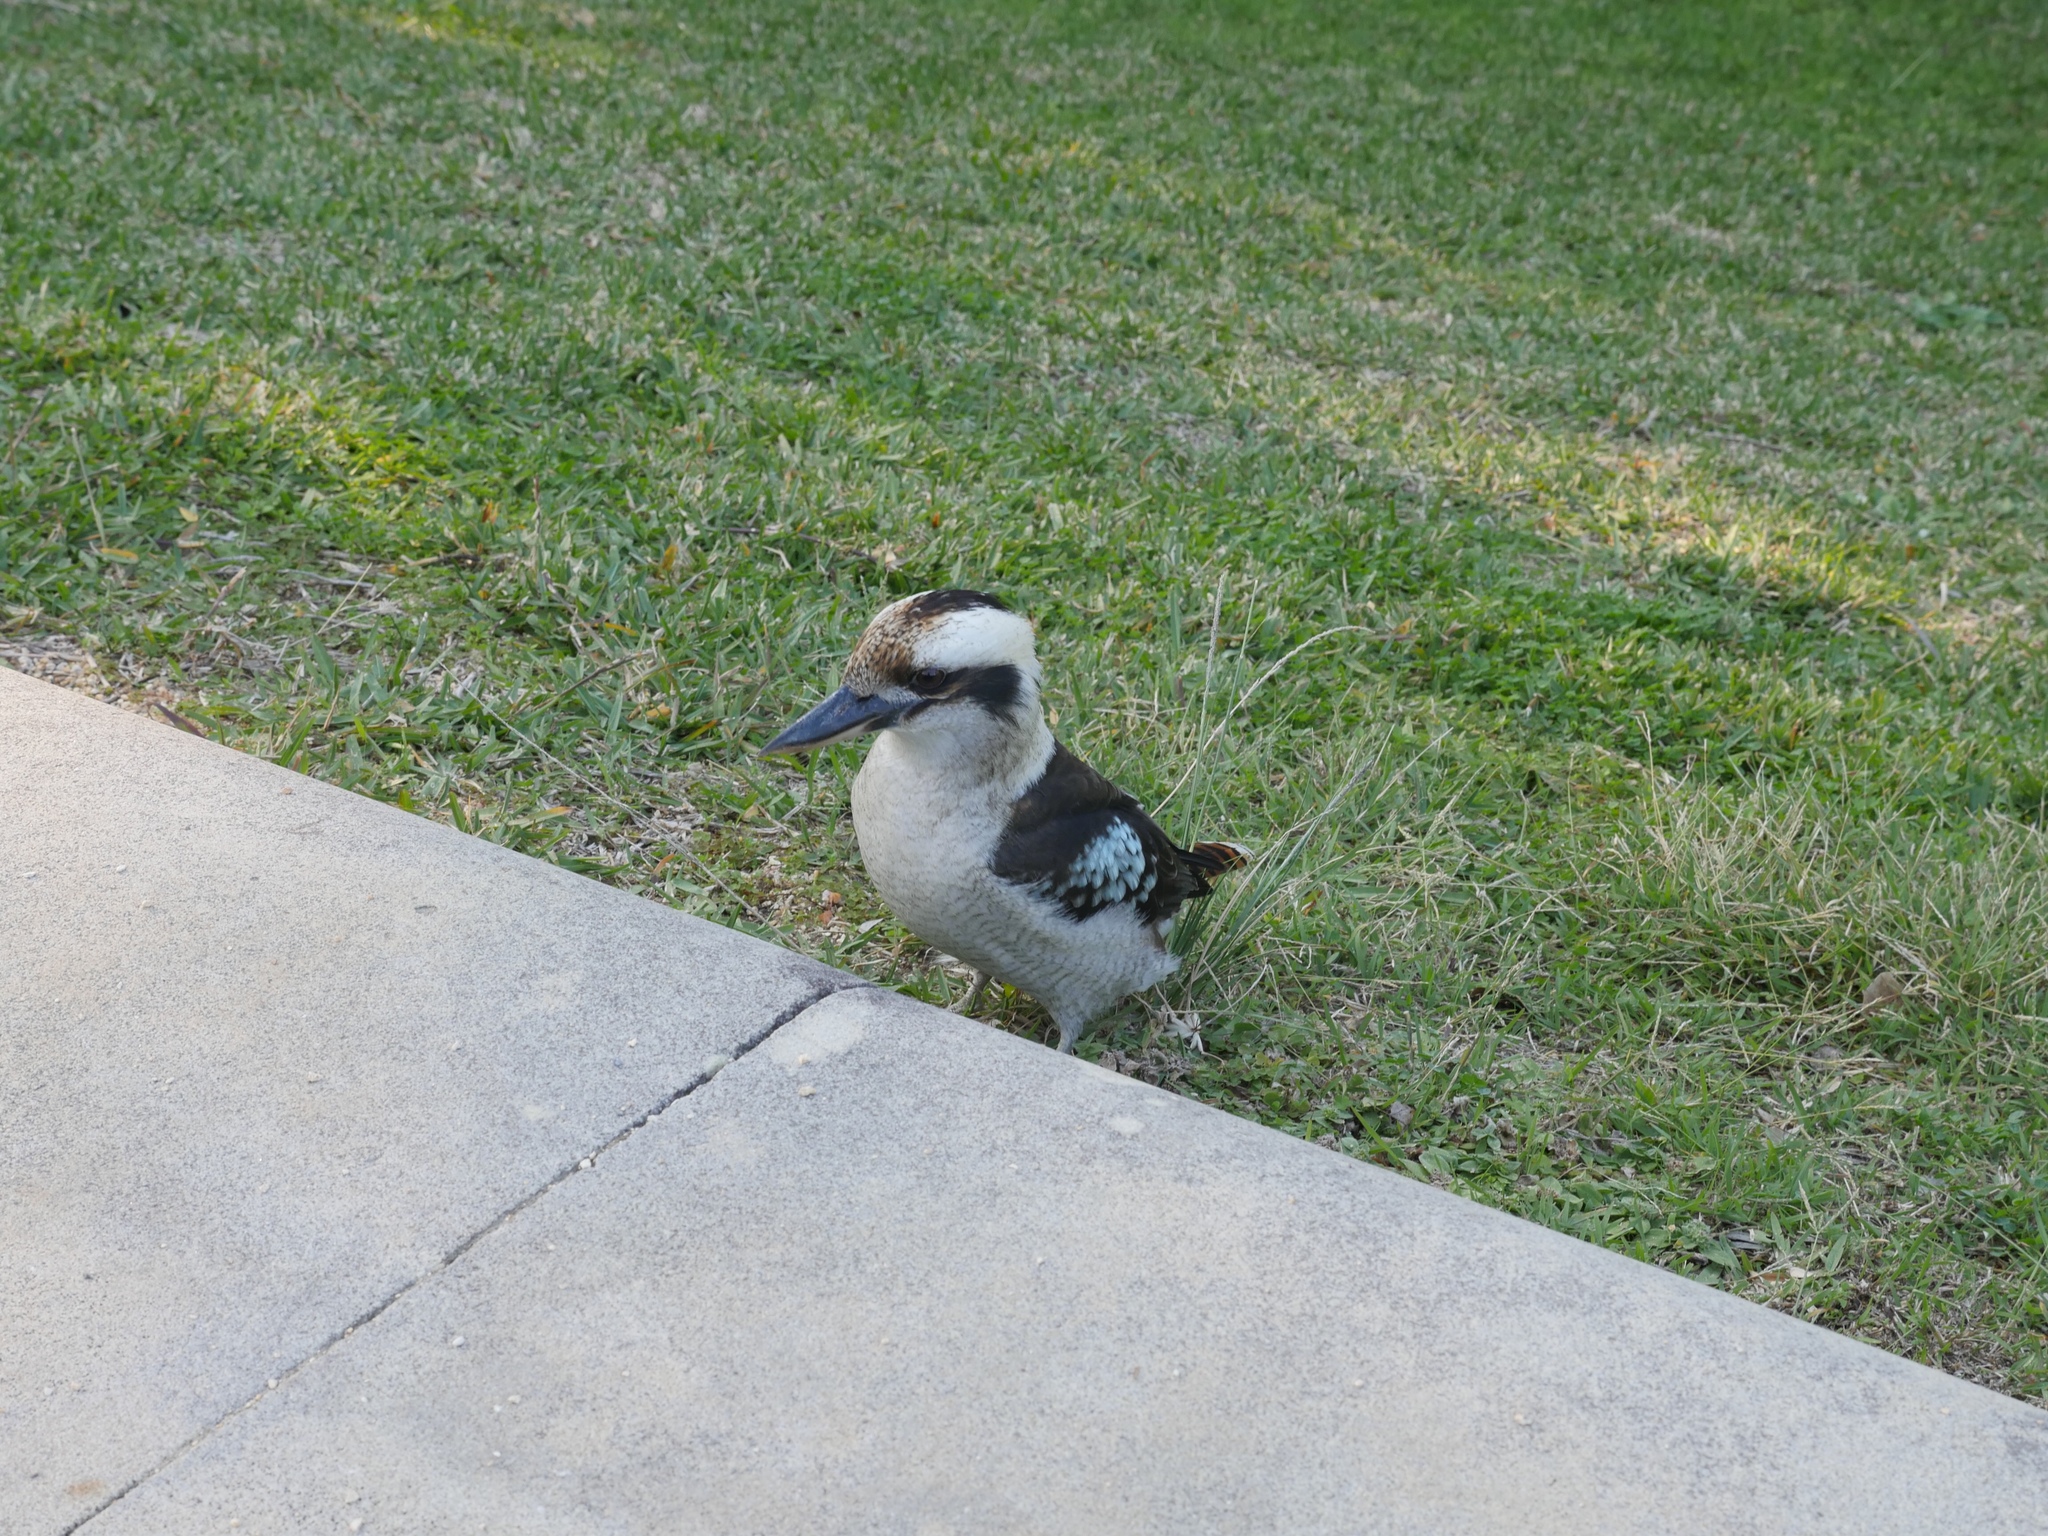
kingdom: Animalia
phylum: Chordata
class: Aves
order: Coraciiformes
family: Alcedinidae
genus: Dacelo
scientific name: Dacelo novaeguineae
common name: Laughing kookaburra
